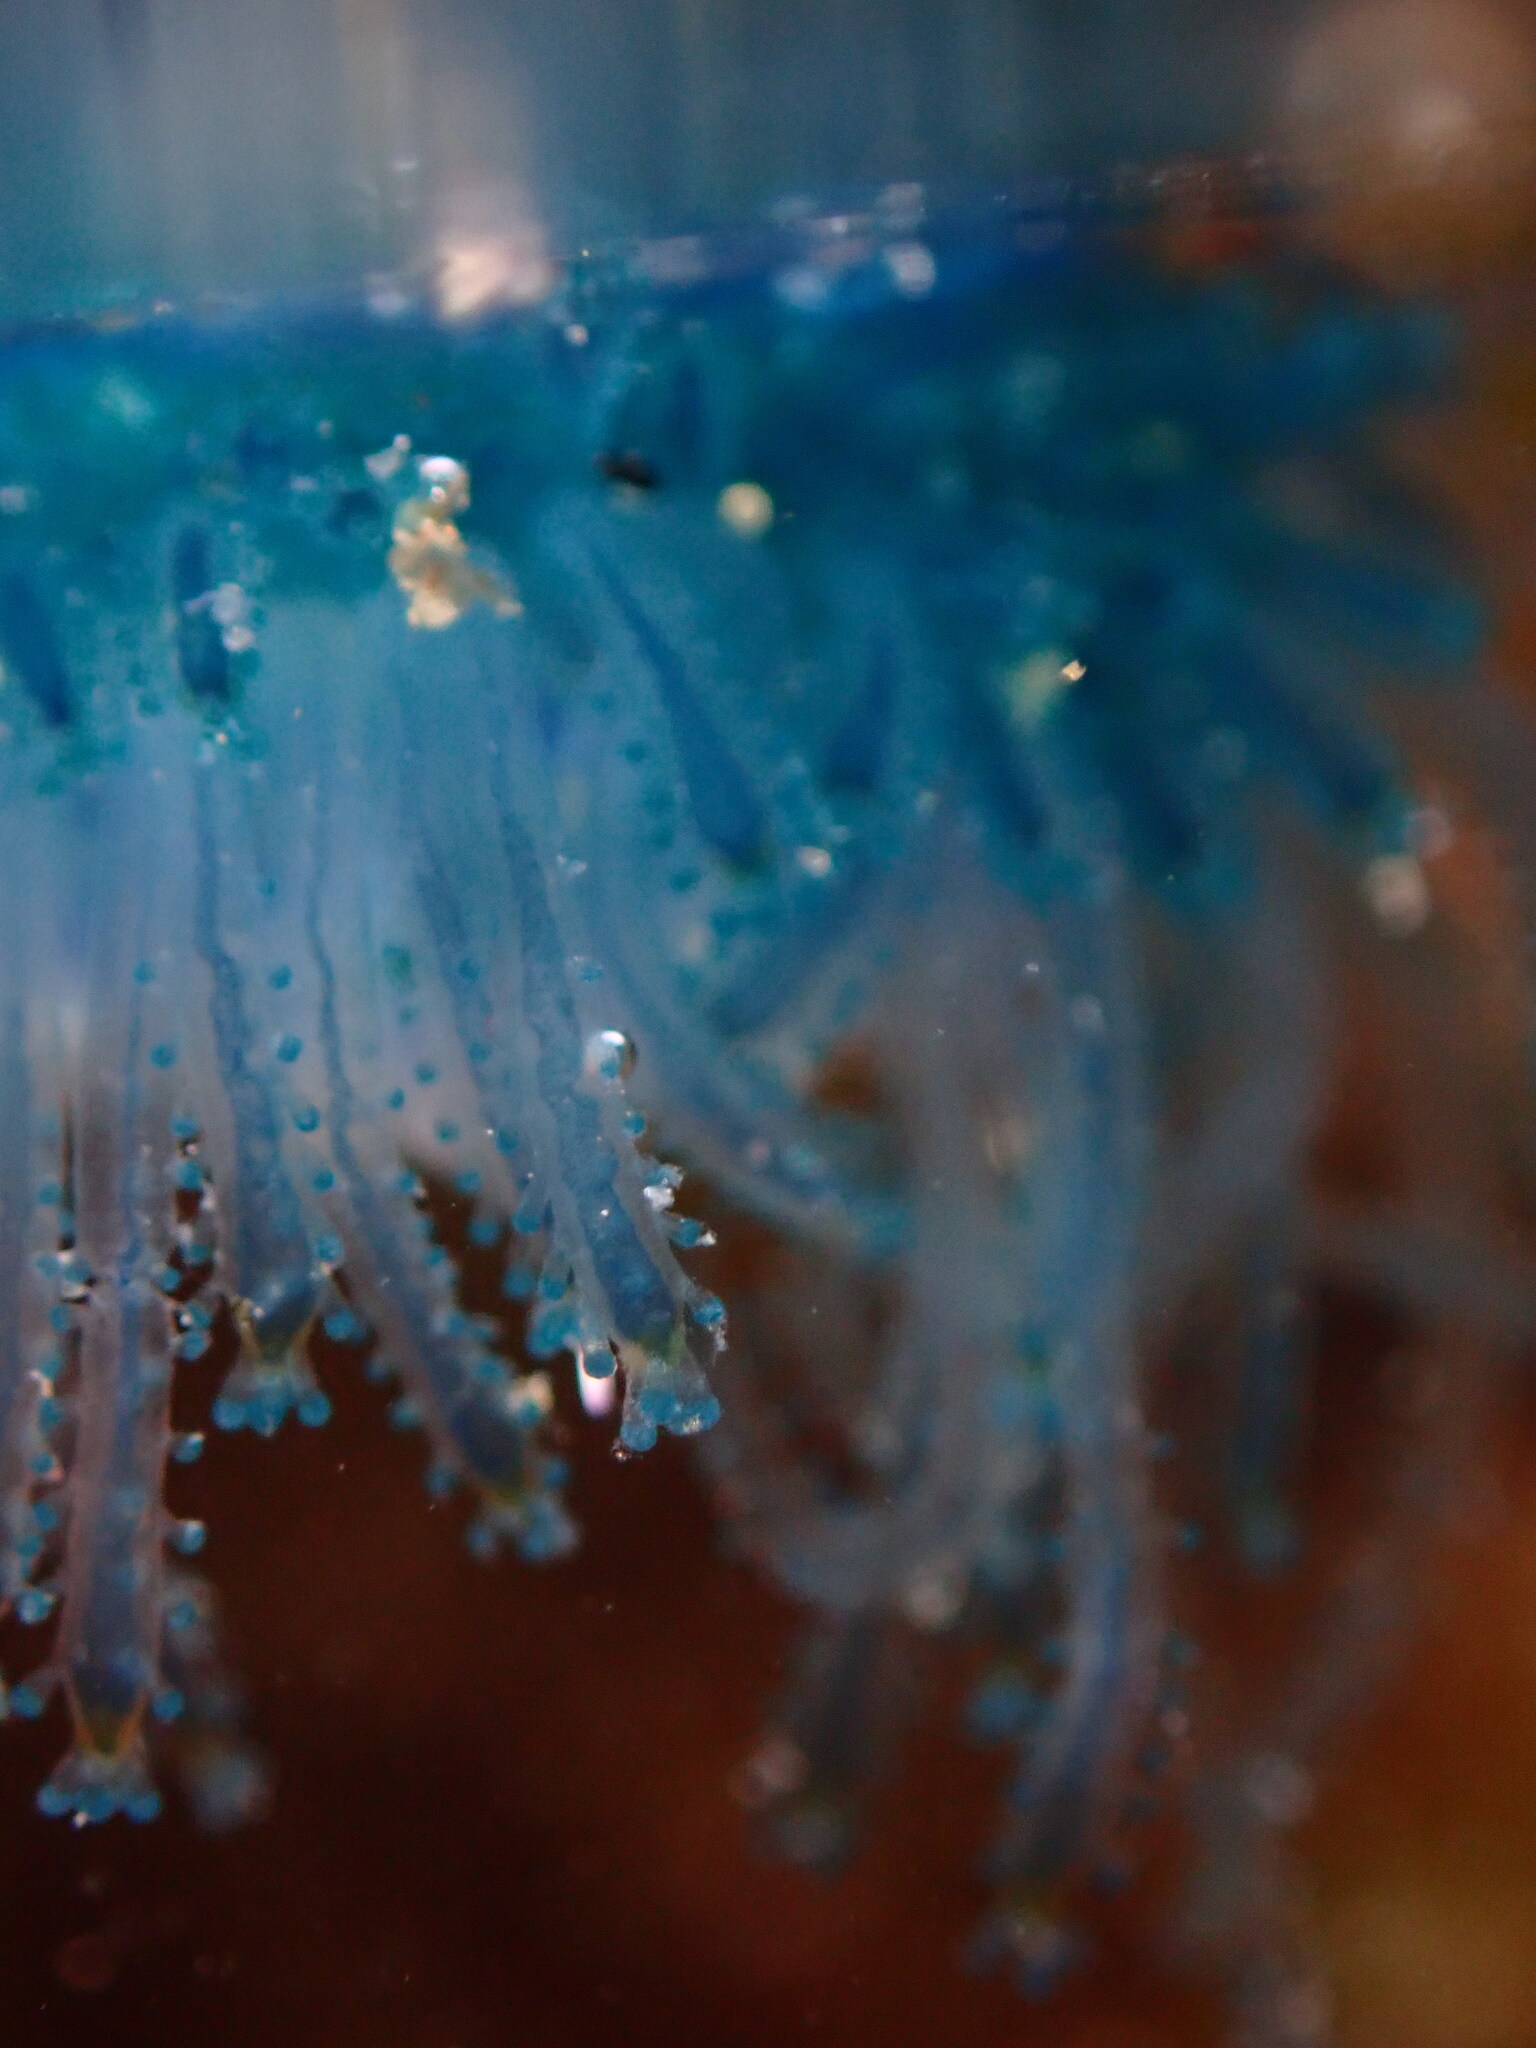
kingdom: Animalia
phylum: Cnidaria
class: Hydrozoa
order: Anthoathecata
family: Porpitidae
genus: Porpita
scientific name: Porpita porpita
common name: Blue button
